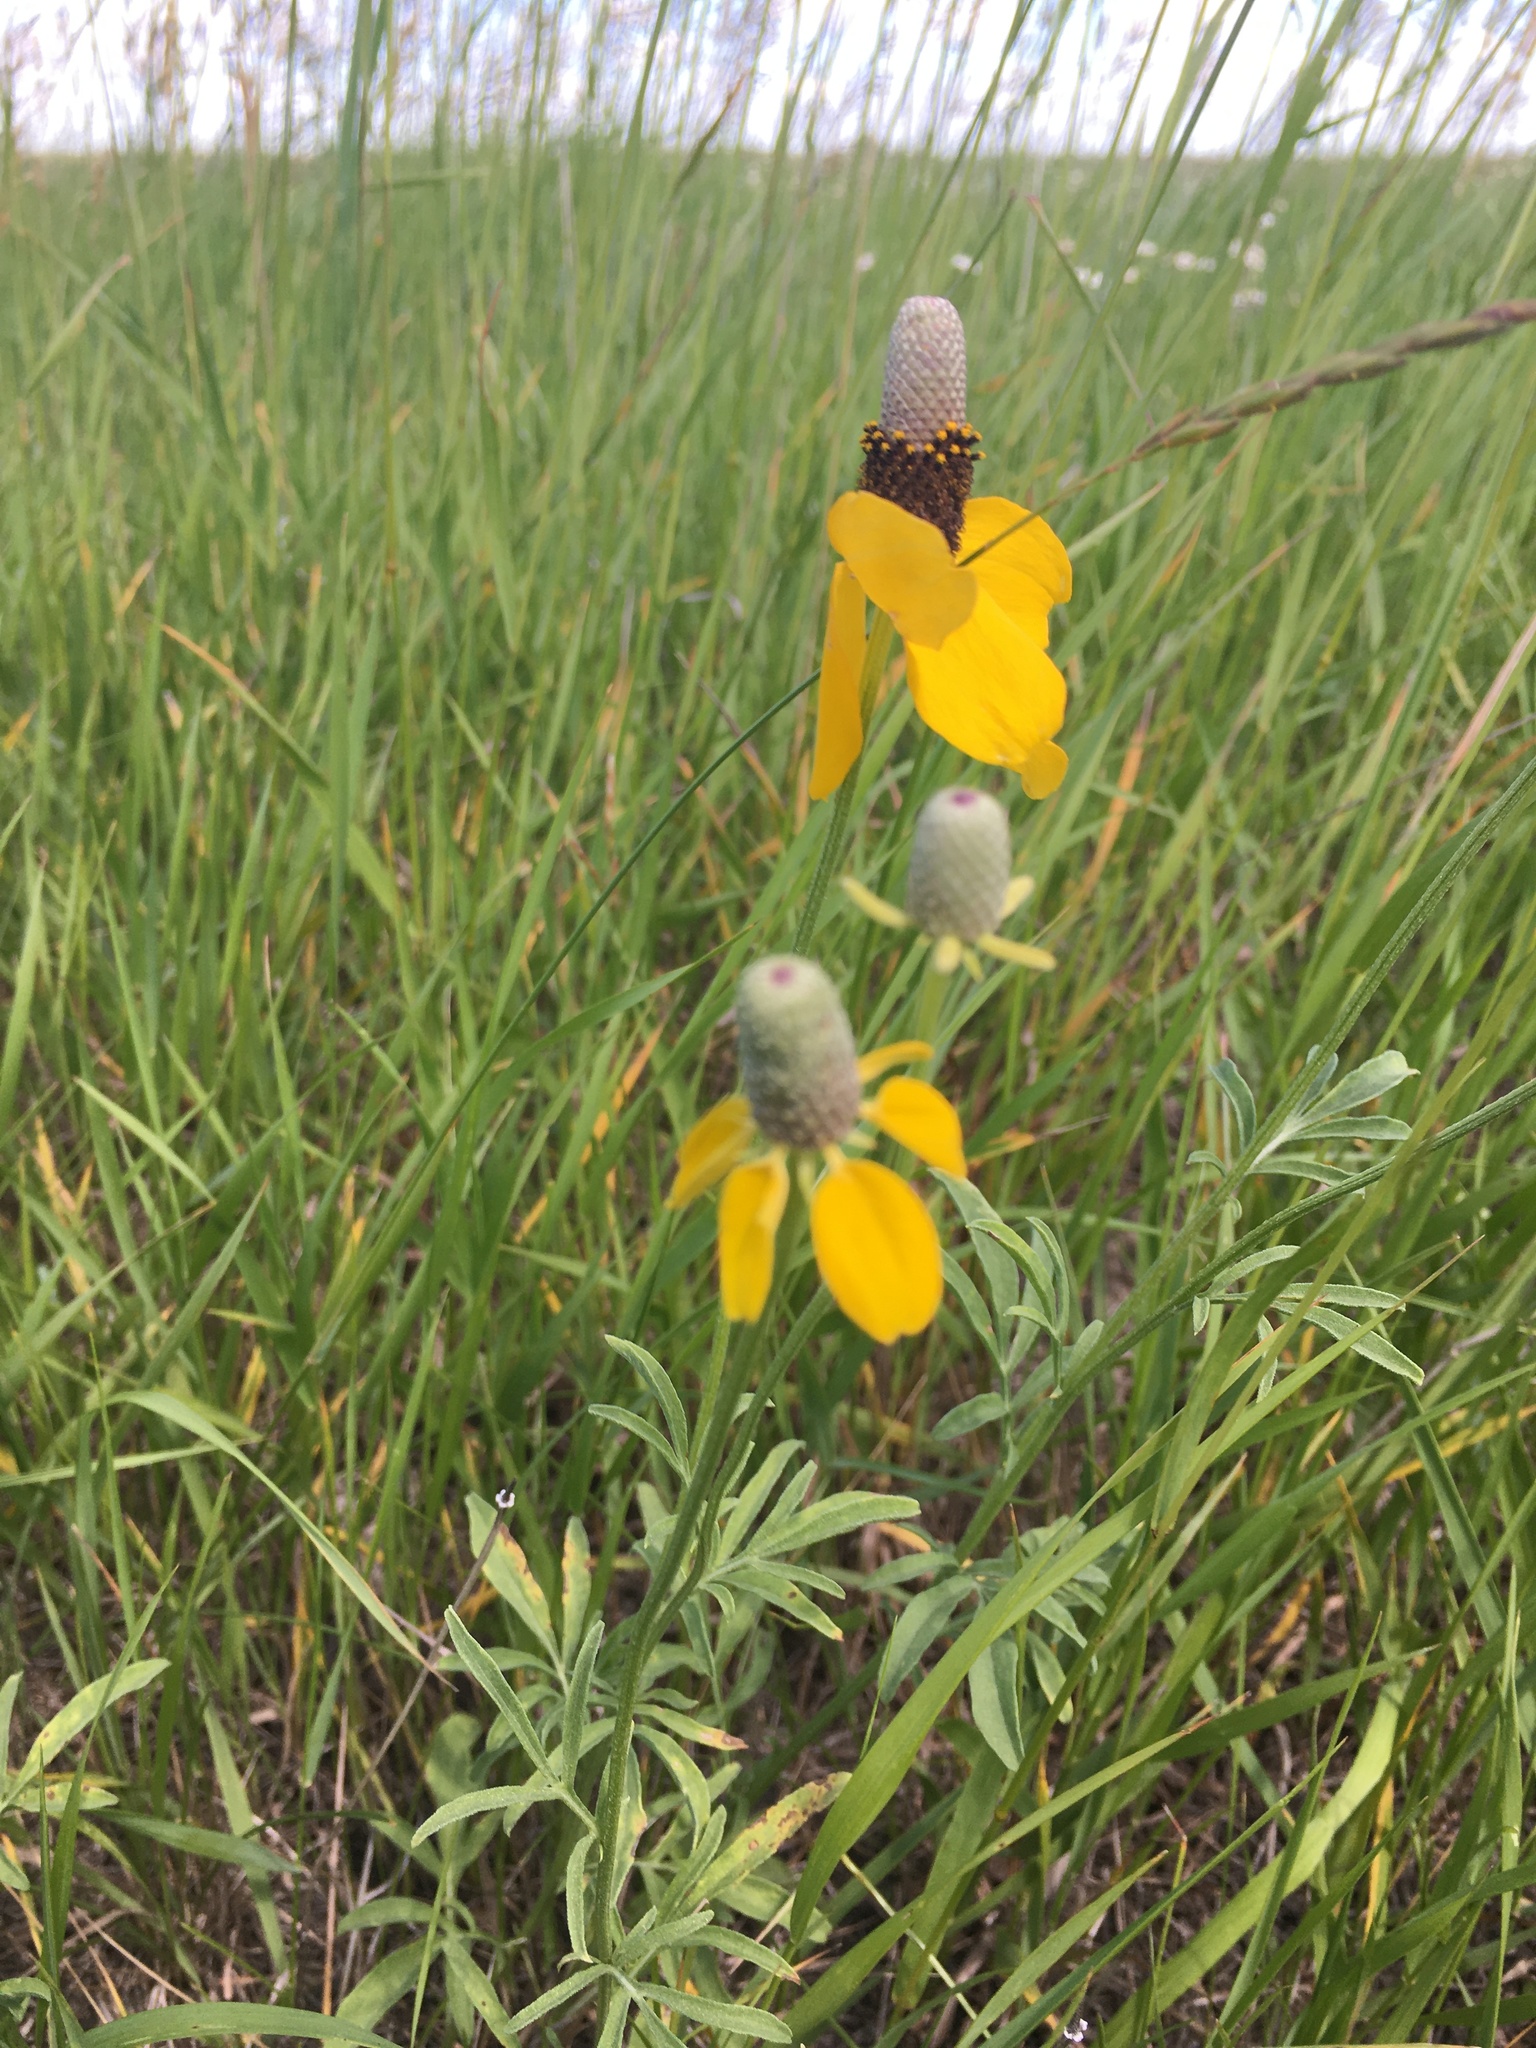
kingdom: Plantae
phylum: Tracheophyta
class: Magnoliopsida
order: Asterales
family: Asteraceae
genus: Ratibida
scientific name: Ratibida columnifera
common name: Prairie coneflower
